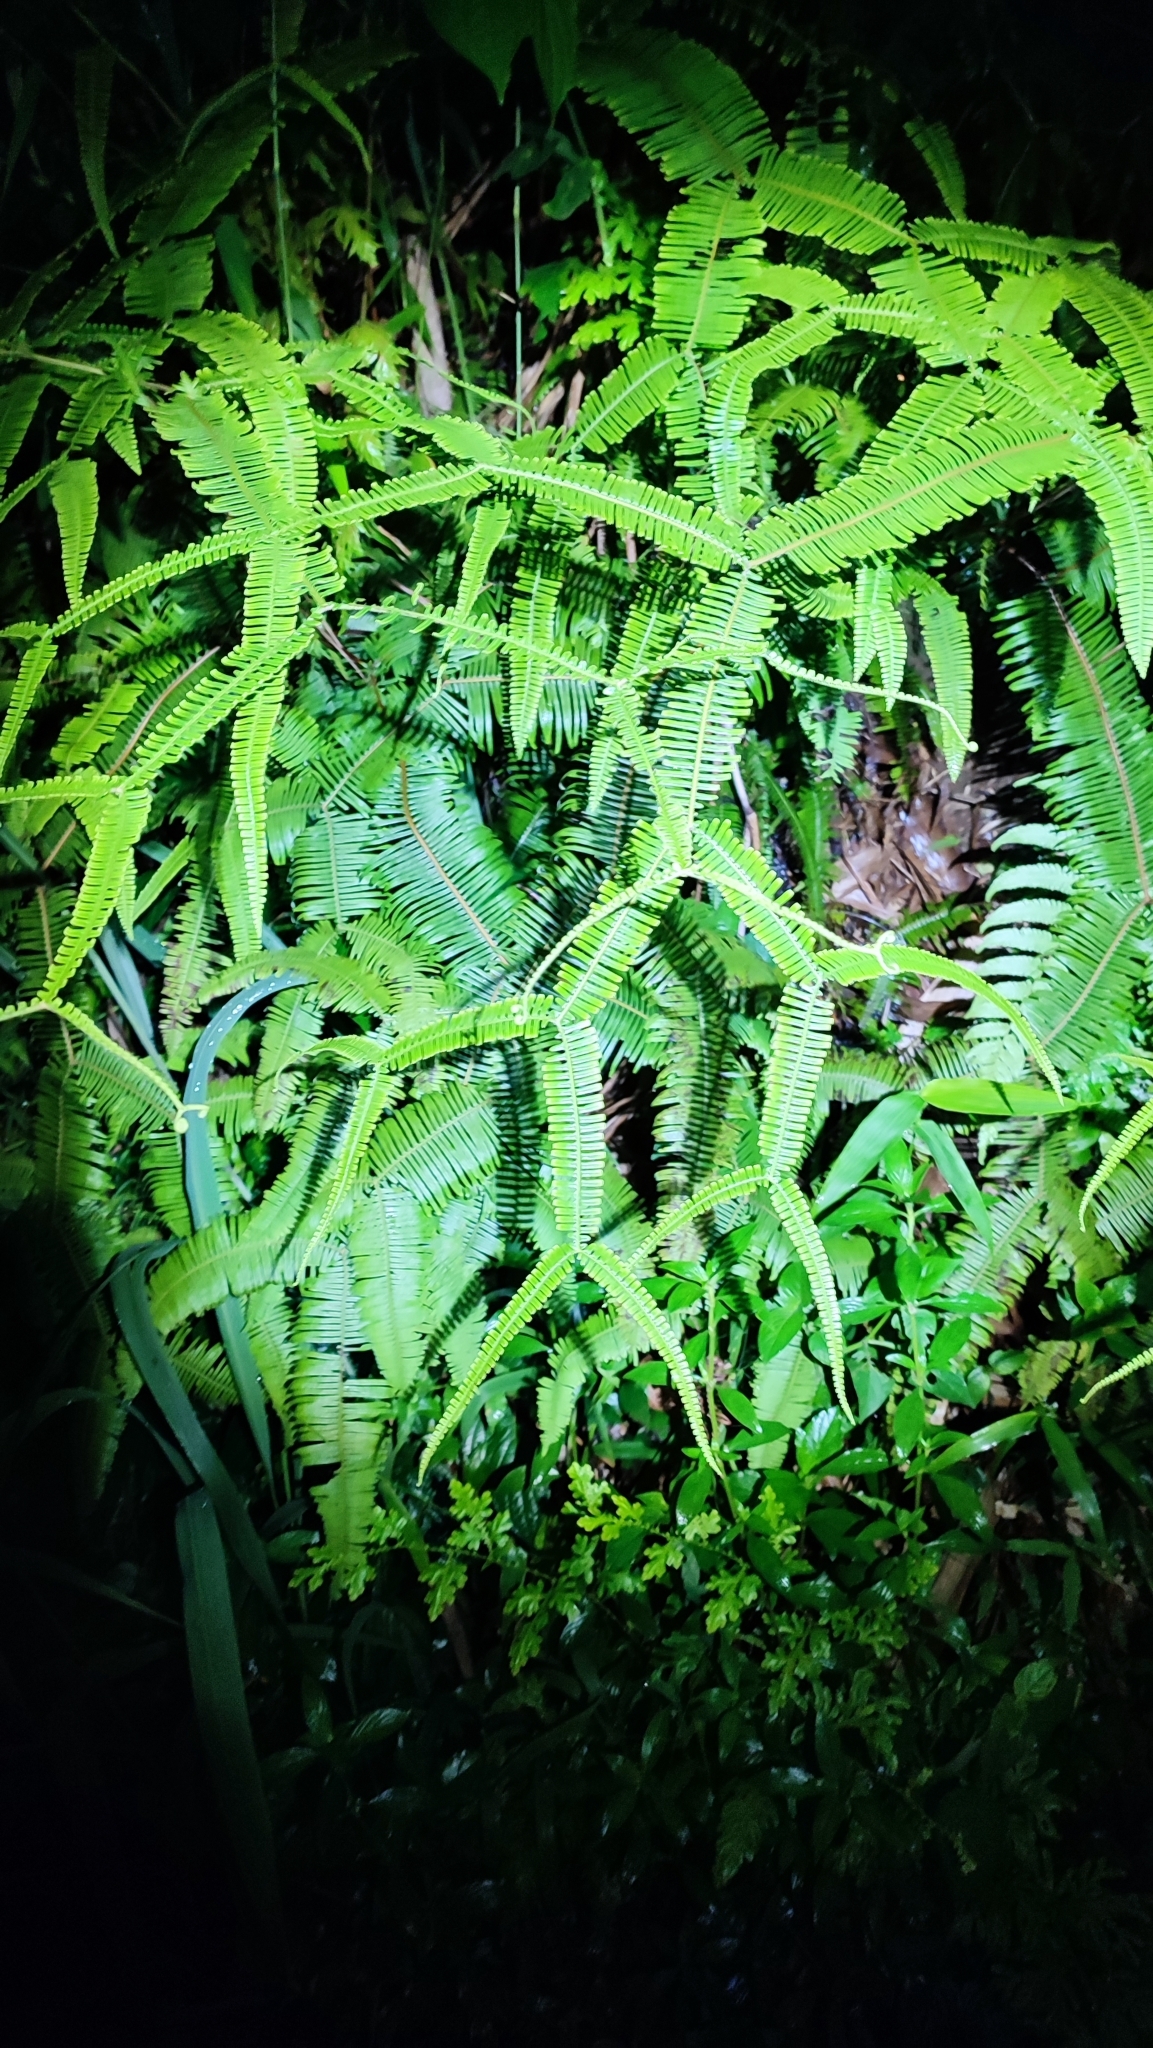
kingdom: Plantae
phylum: Tracheophyta
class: Polypodiopsida
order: Gleicheniales
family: Gleicheniaceae
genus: Sticherus
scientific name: Sticherus truncatus
